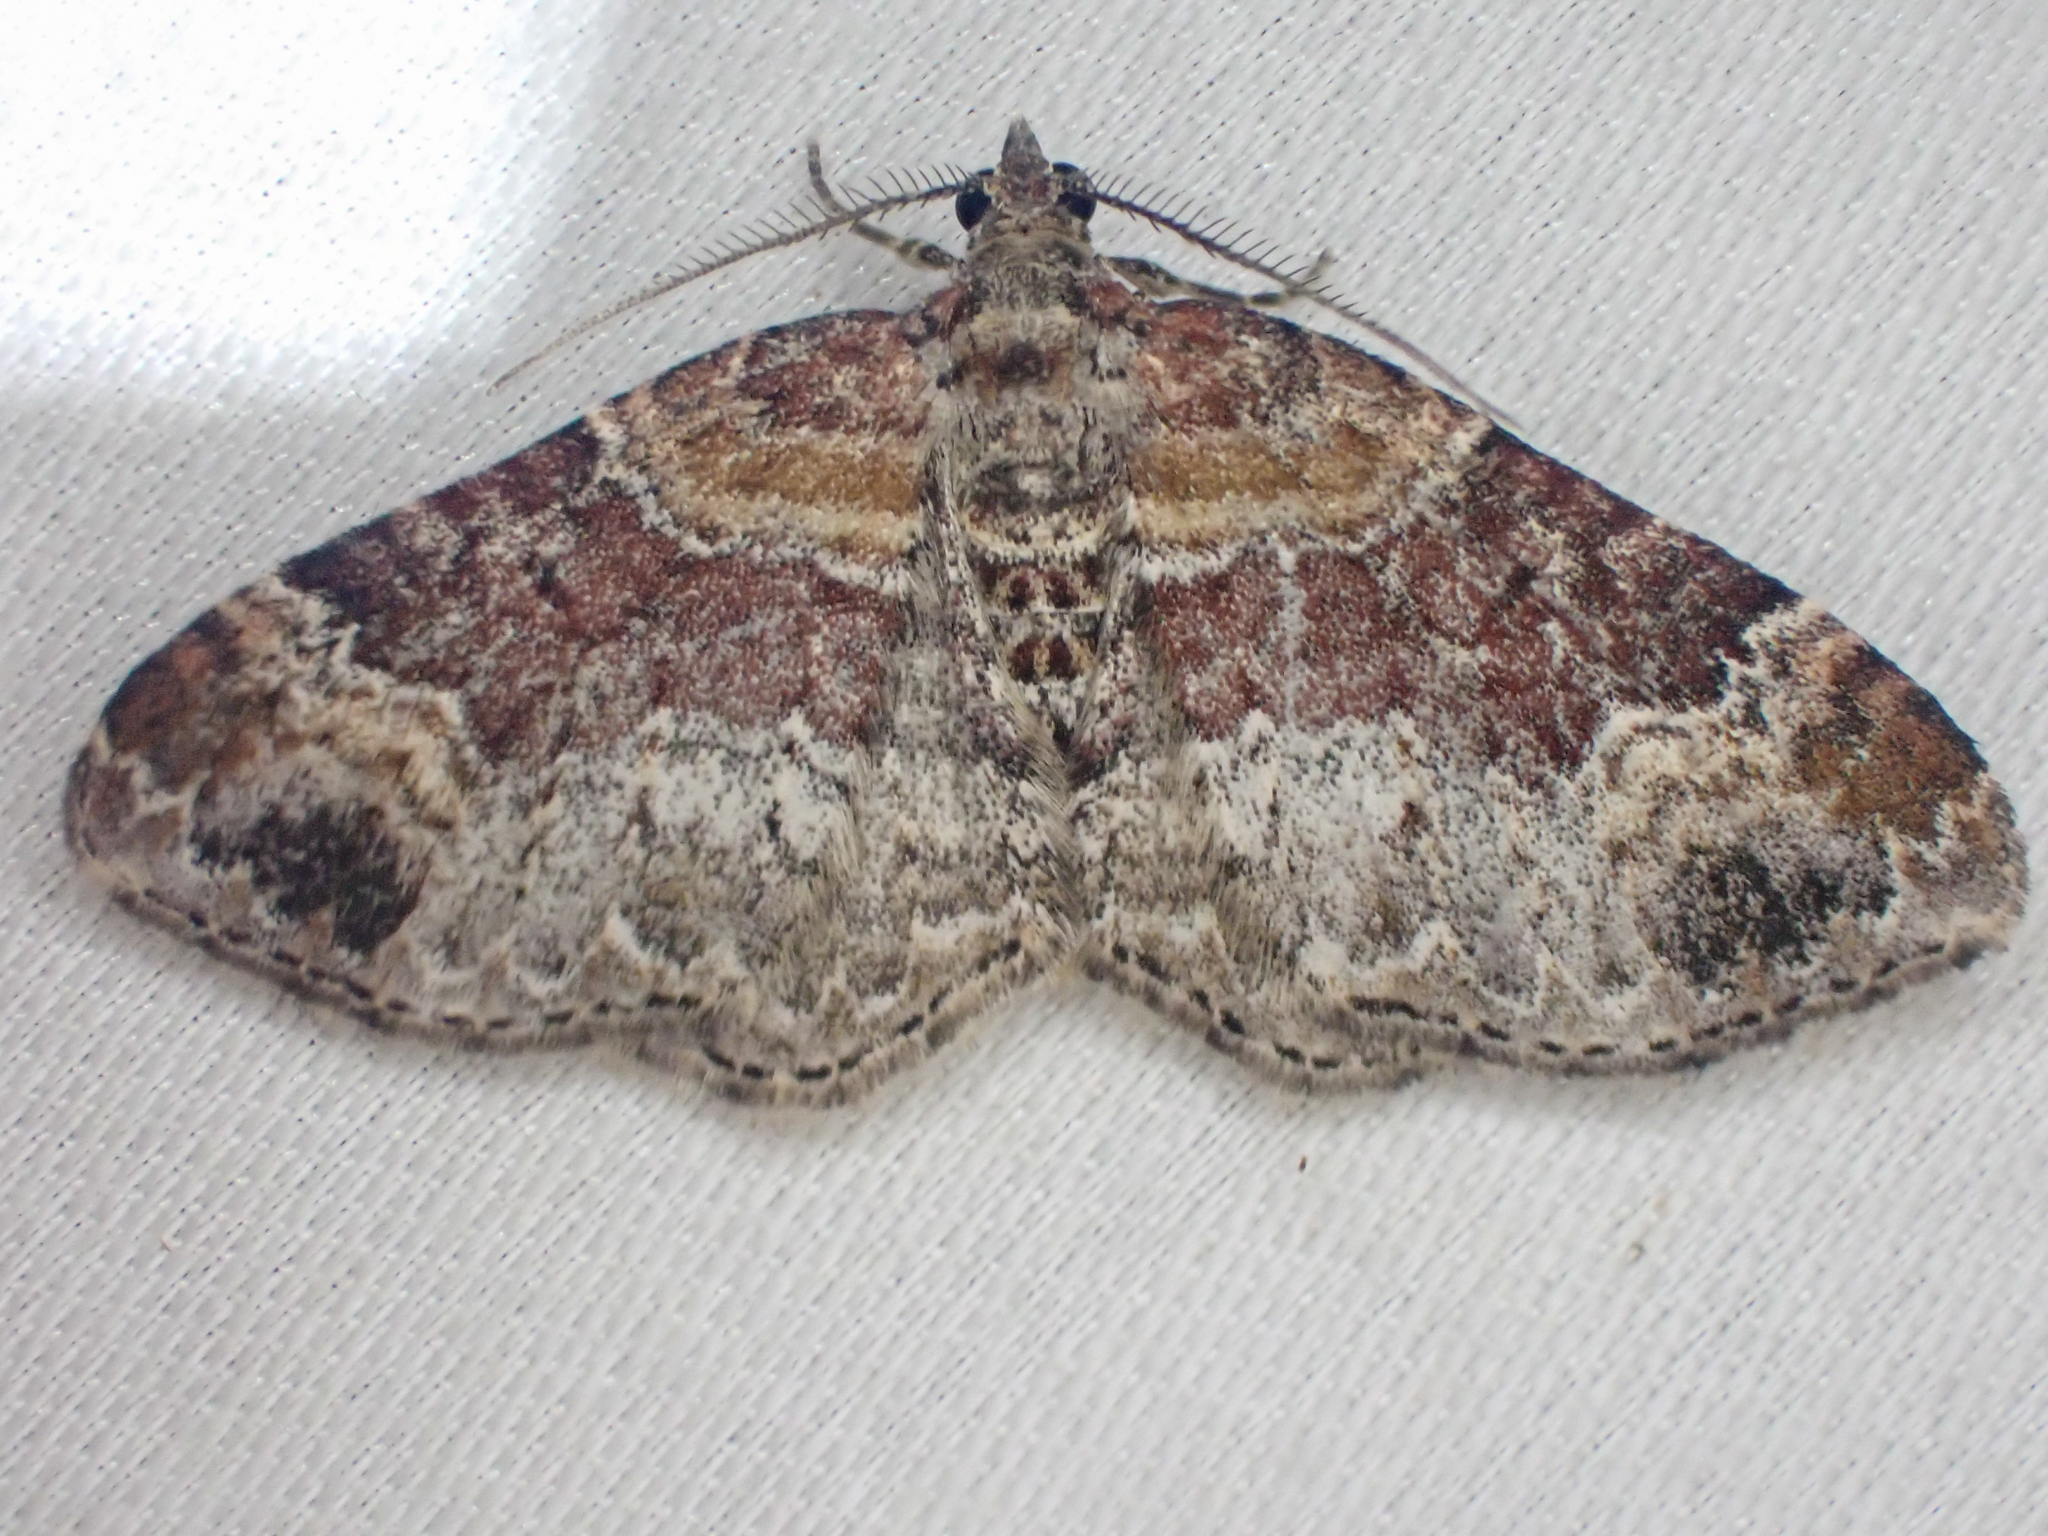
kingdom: Animalia
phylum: Arthropoda
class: Insecta
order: Lepidoptera
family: Geometridae
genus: Xanthorhoe
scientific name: Xanthorhoe ferrugata
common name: Dark-barred twin-spot carpet
